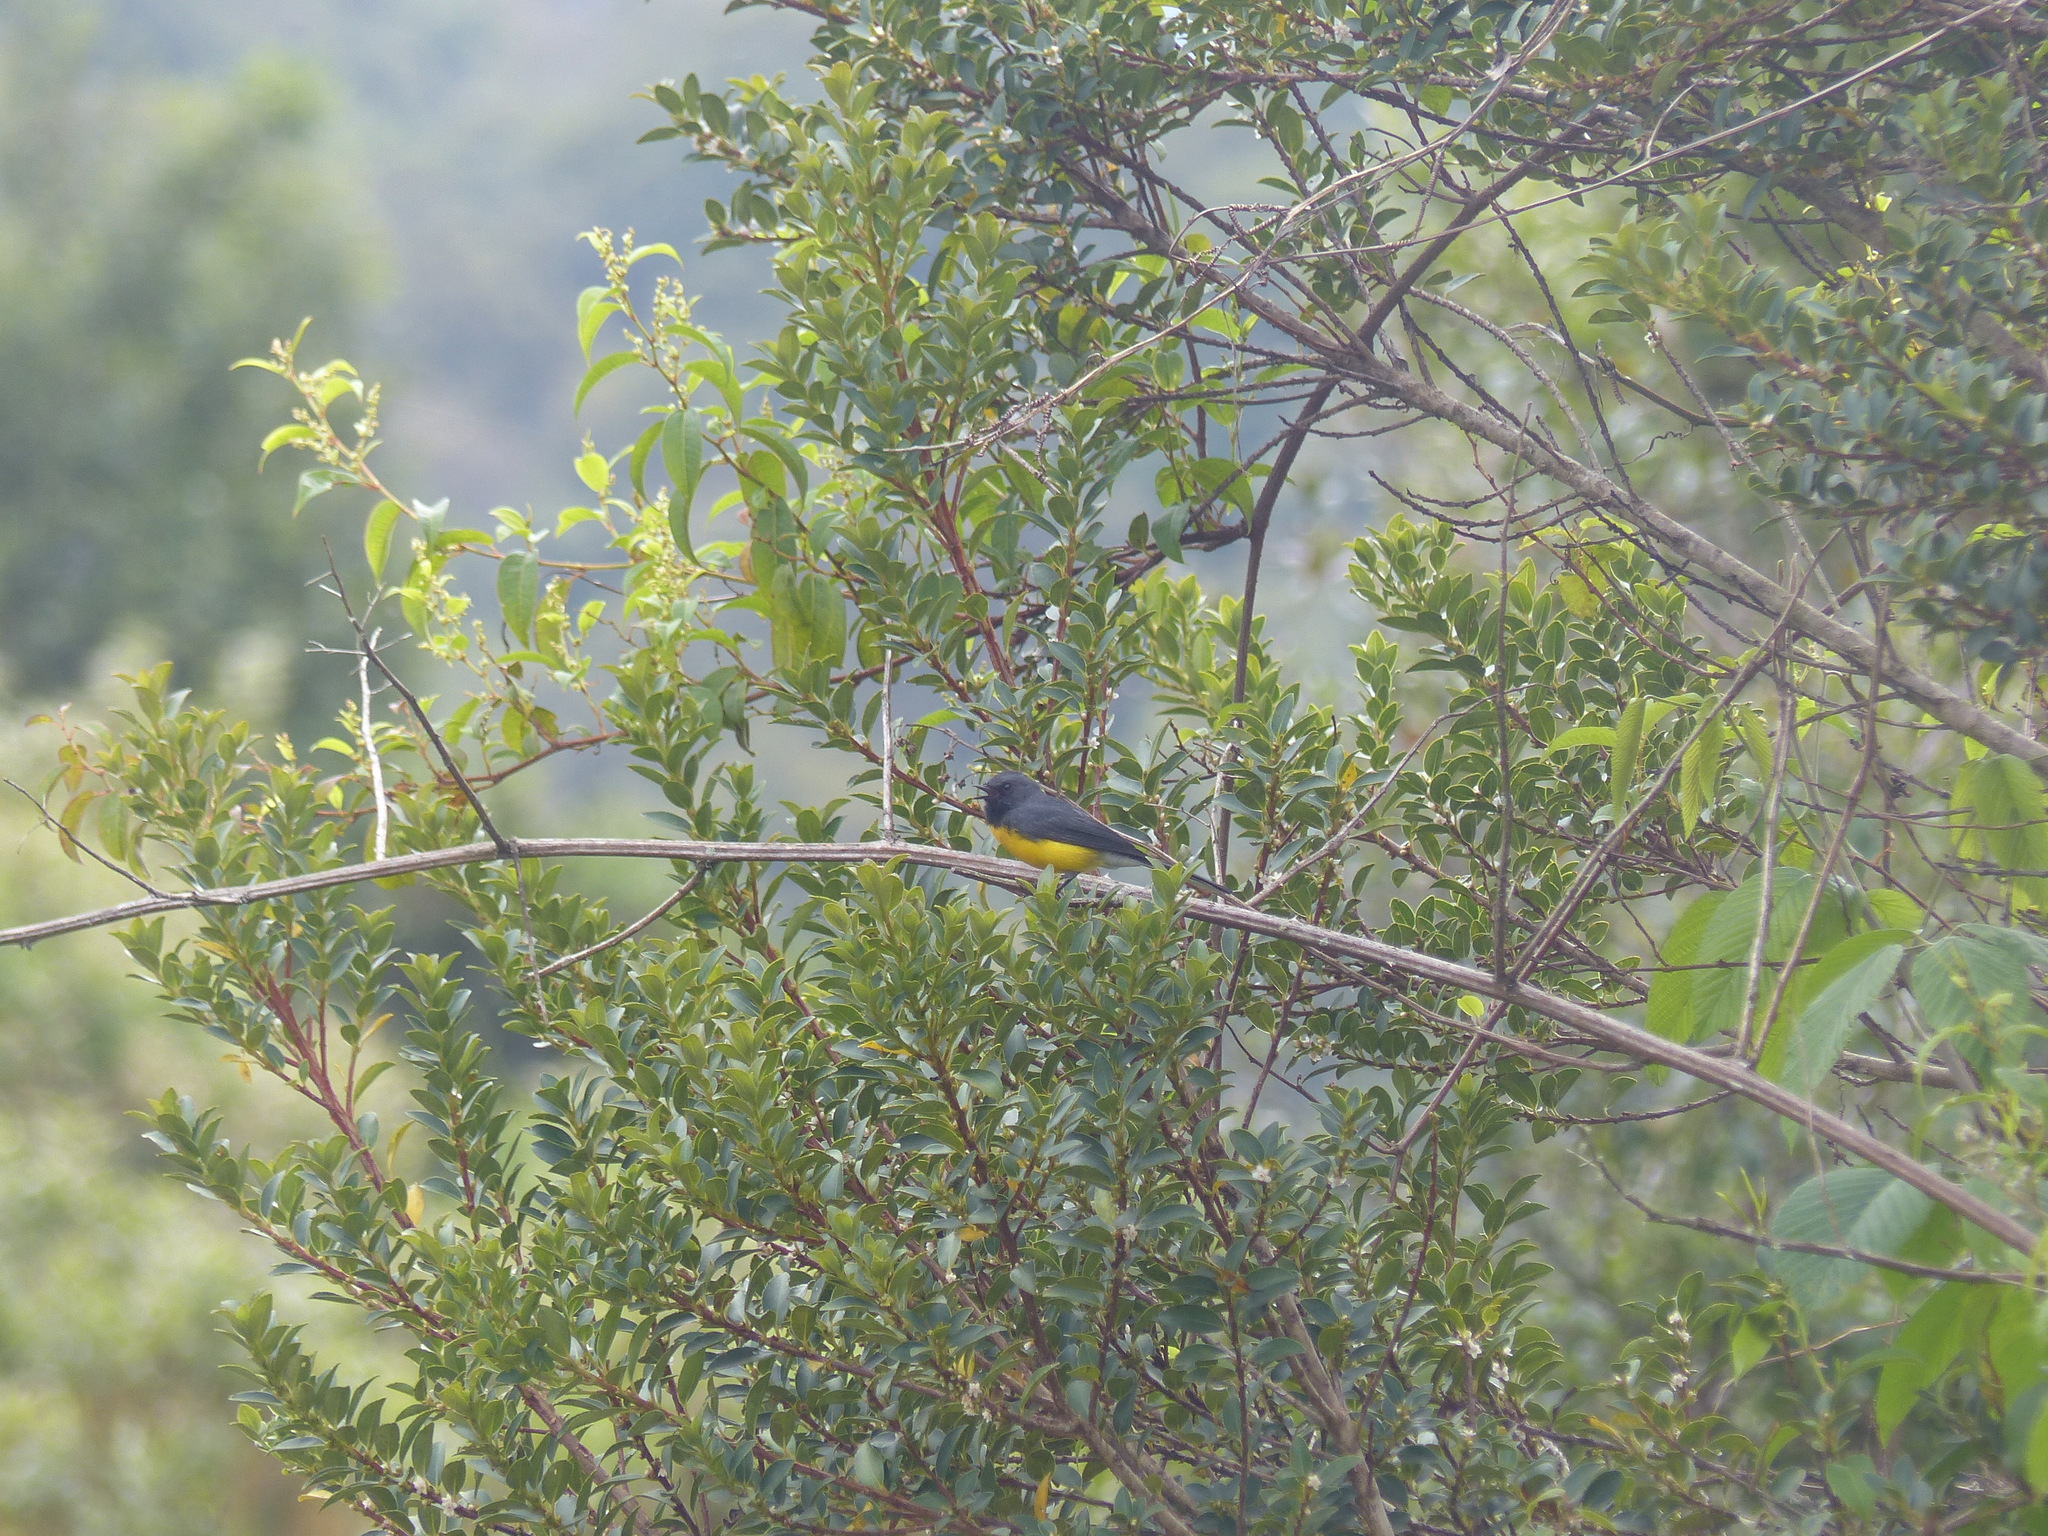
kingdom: Animalia
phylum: Chordata
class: Aves
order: Passeriformes
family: Parulidae
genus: Myioborus
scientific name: Myioborus miniatus
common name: Slate-throated redstart
